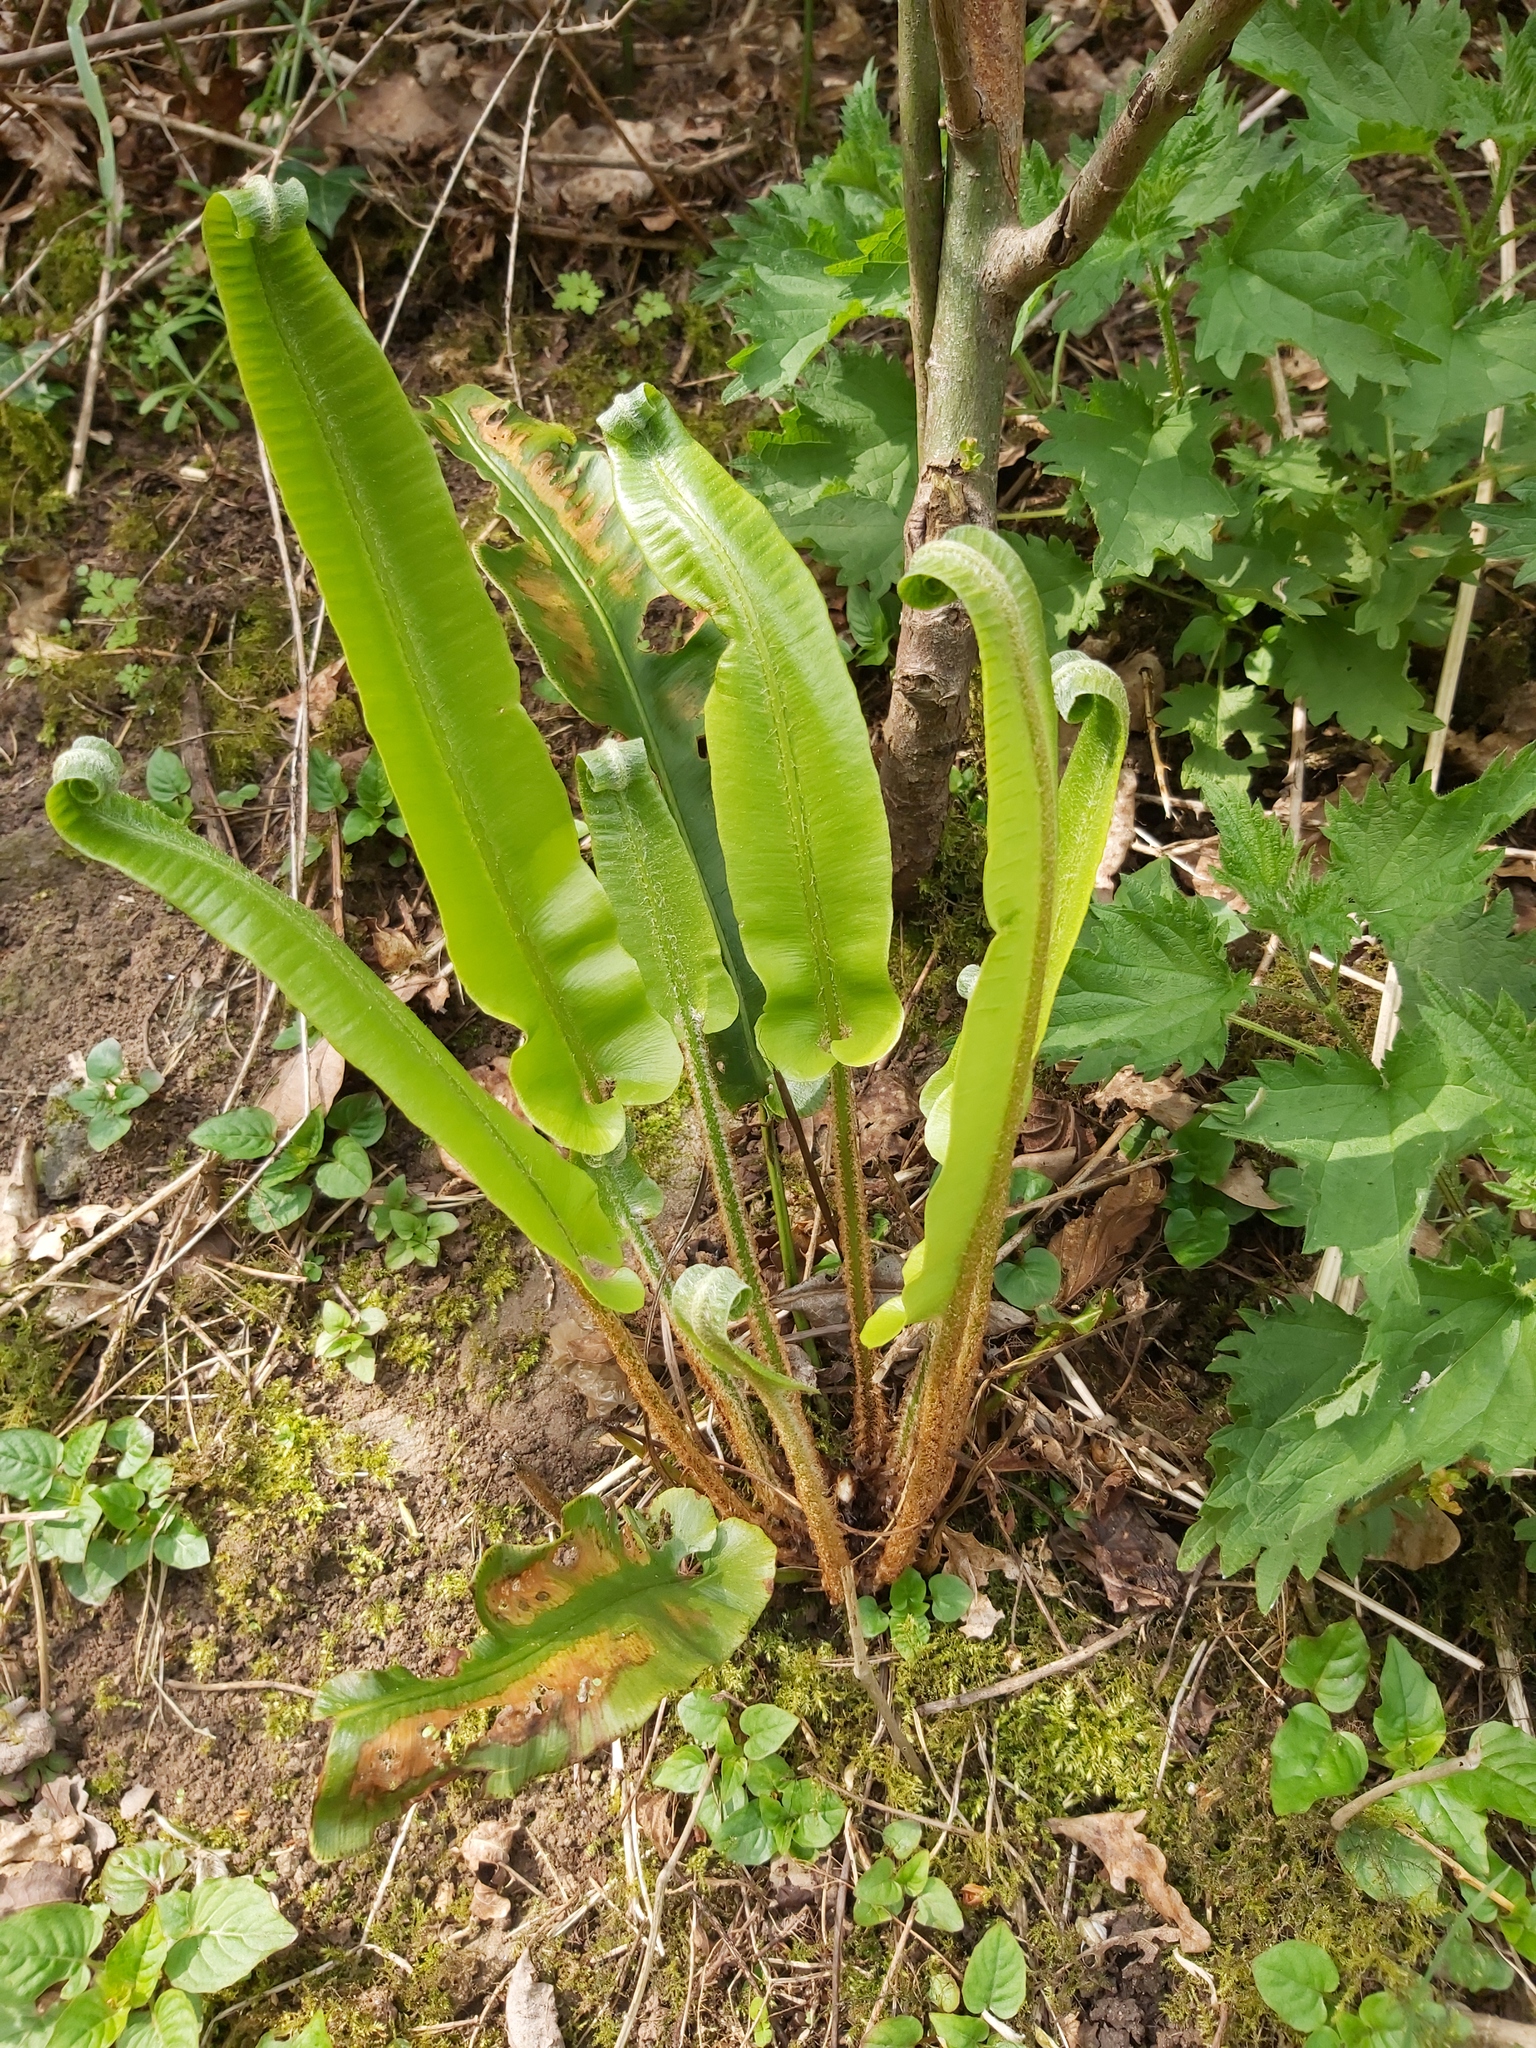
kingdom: Plantae
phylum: Tracheophyta
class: Polypodiopsida
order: Polypodiales
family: Aspleniaceae
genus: Asplenium
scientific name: Asplenium scolopendrium
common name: Hart's-tongue fern
